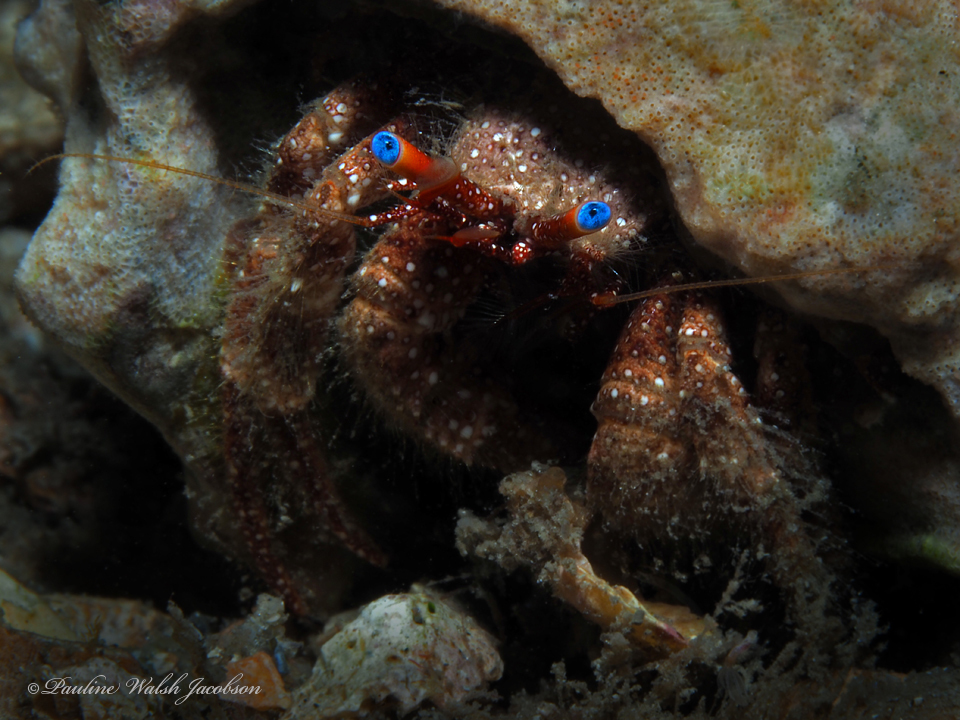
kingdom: Animalia
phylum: Arthropoda
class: Malacostraca
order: Decapoda
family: Diogenidae
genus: Paguristes
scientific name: Paguristes wassi
